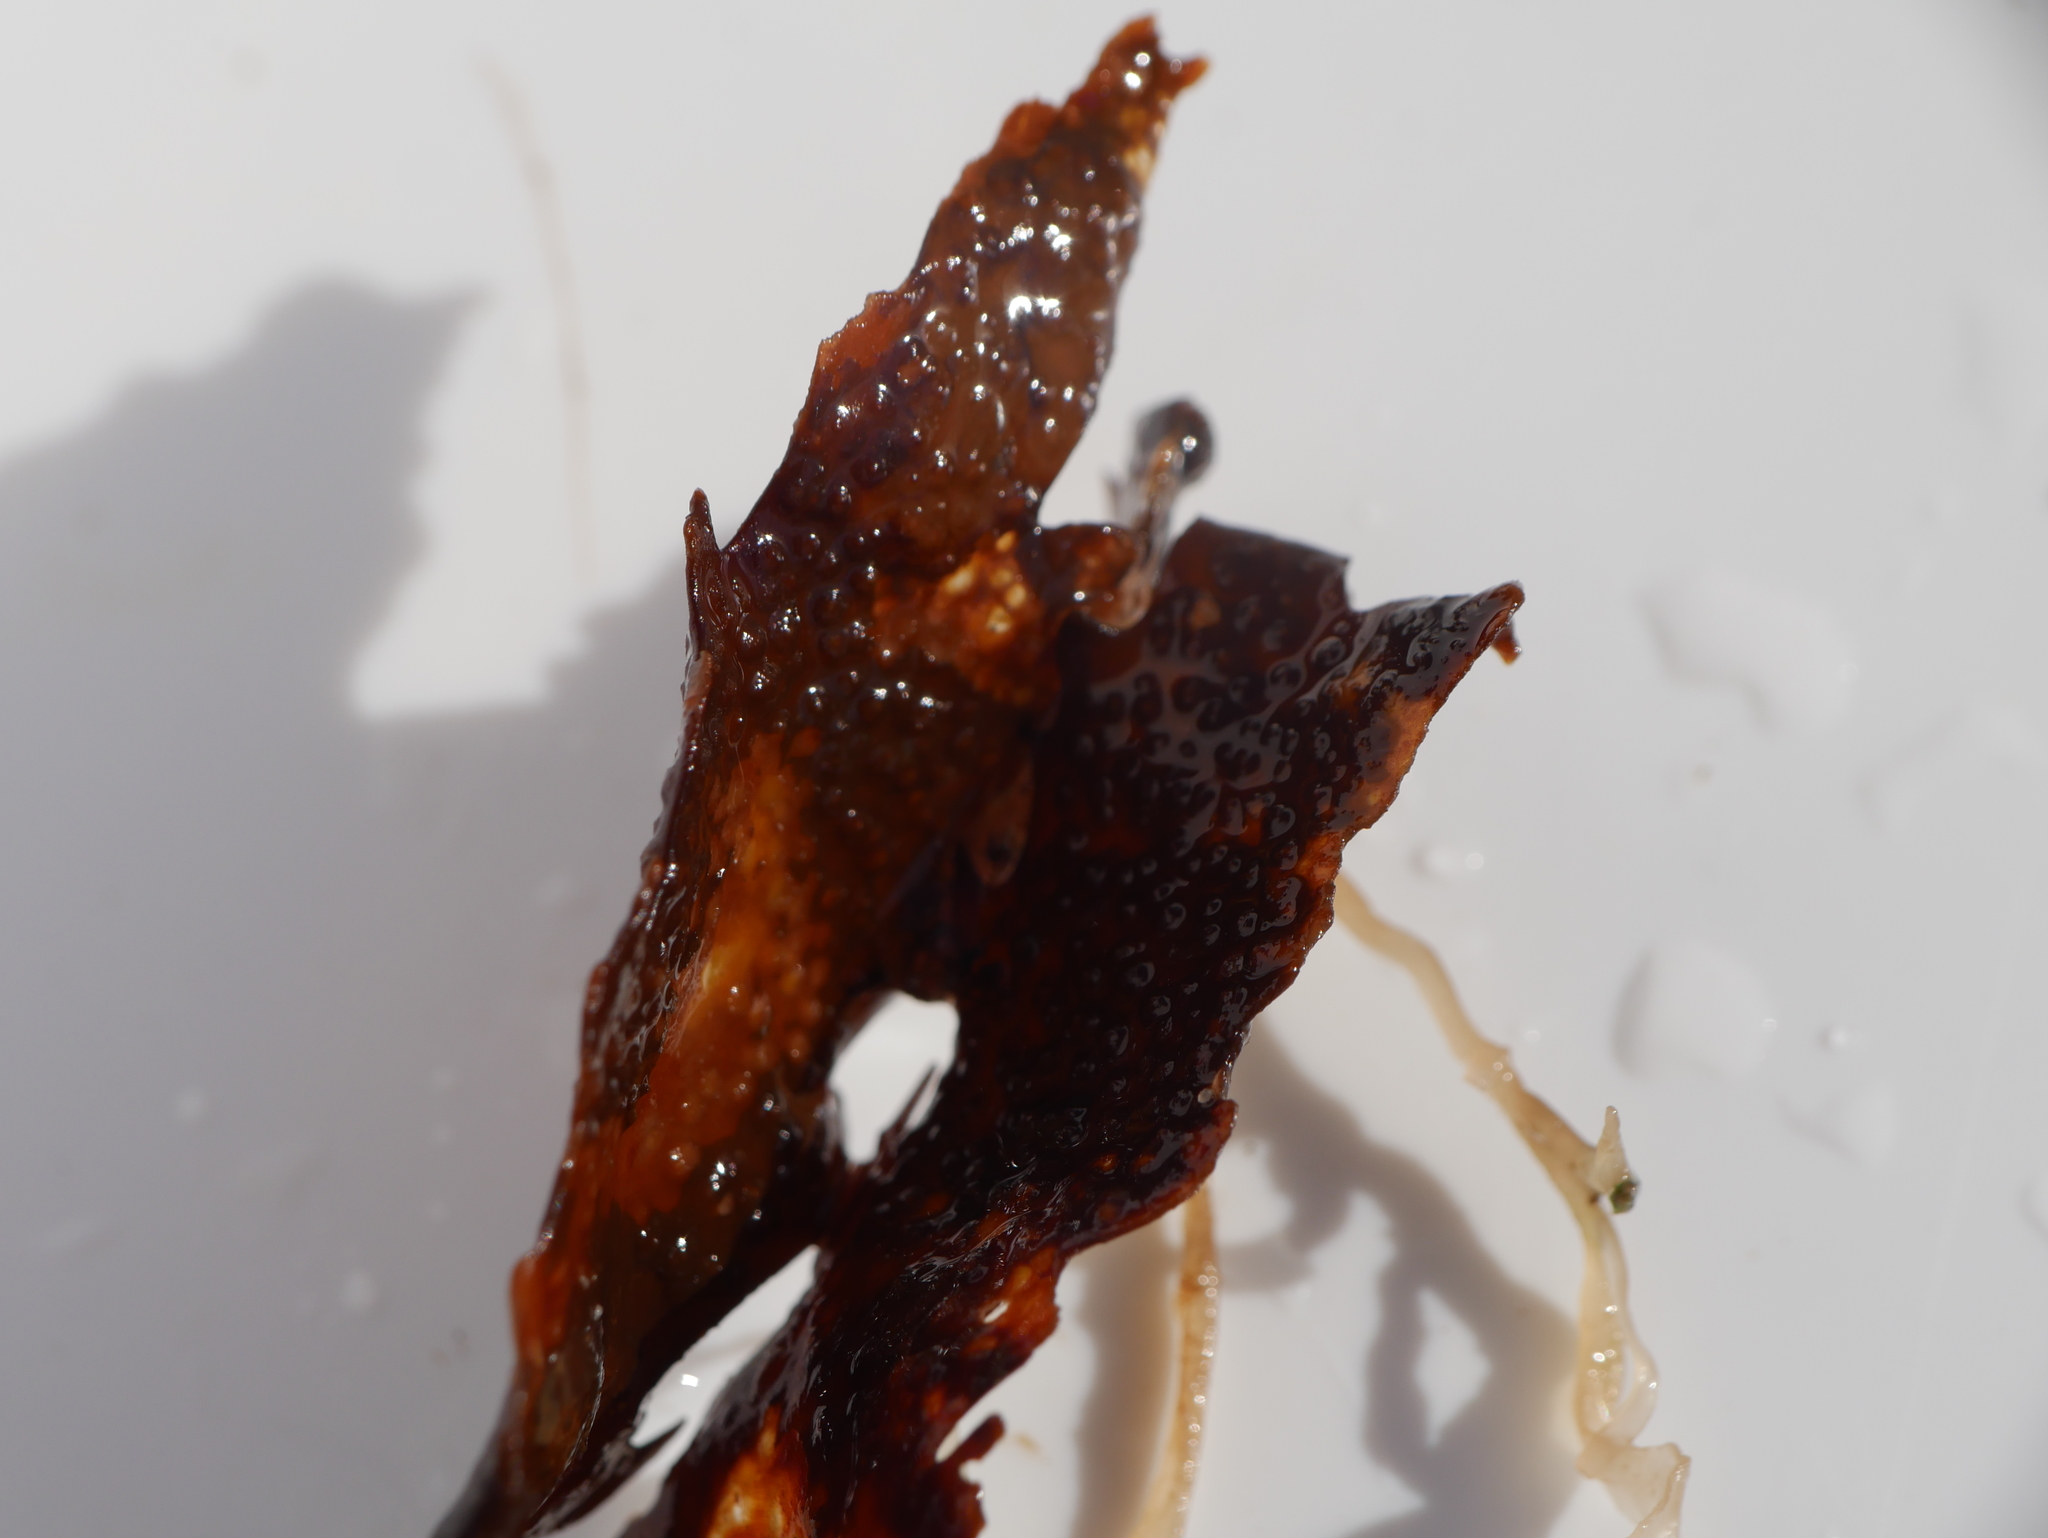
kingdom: Chromista
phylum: Ochrophyta
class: Phaeophyceae
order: Fucales
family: Fucaceae
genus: Fucus
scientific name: Fucus serratus
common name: Toothed wrack
